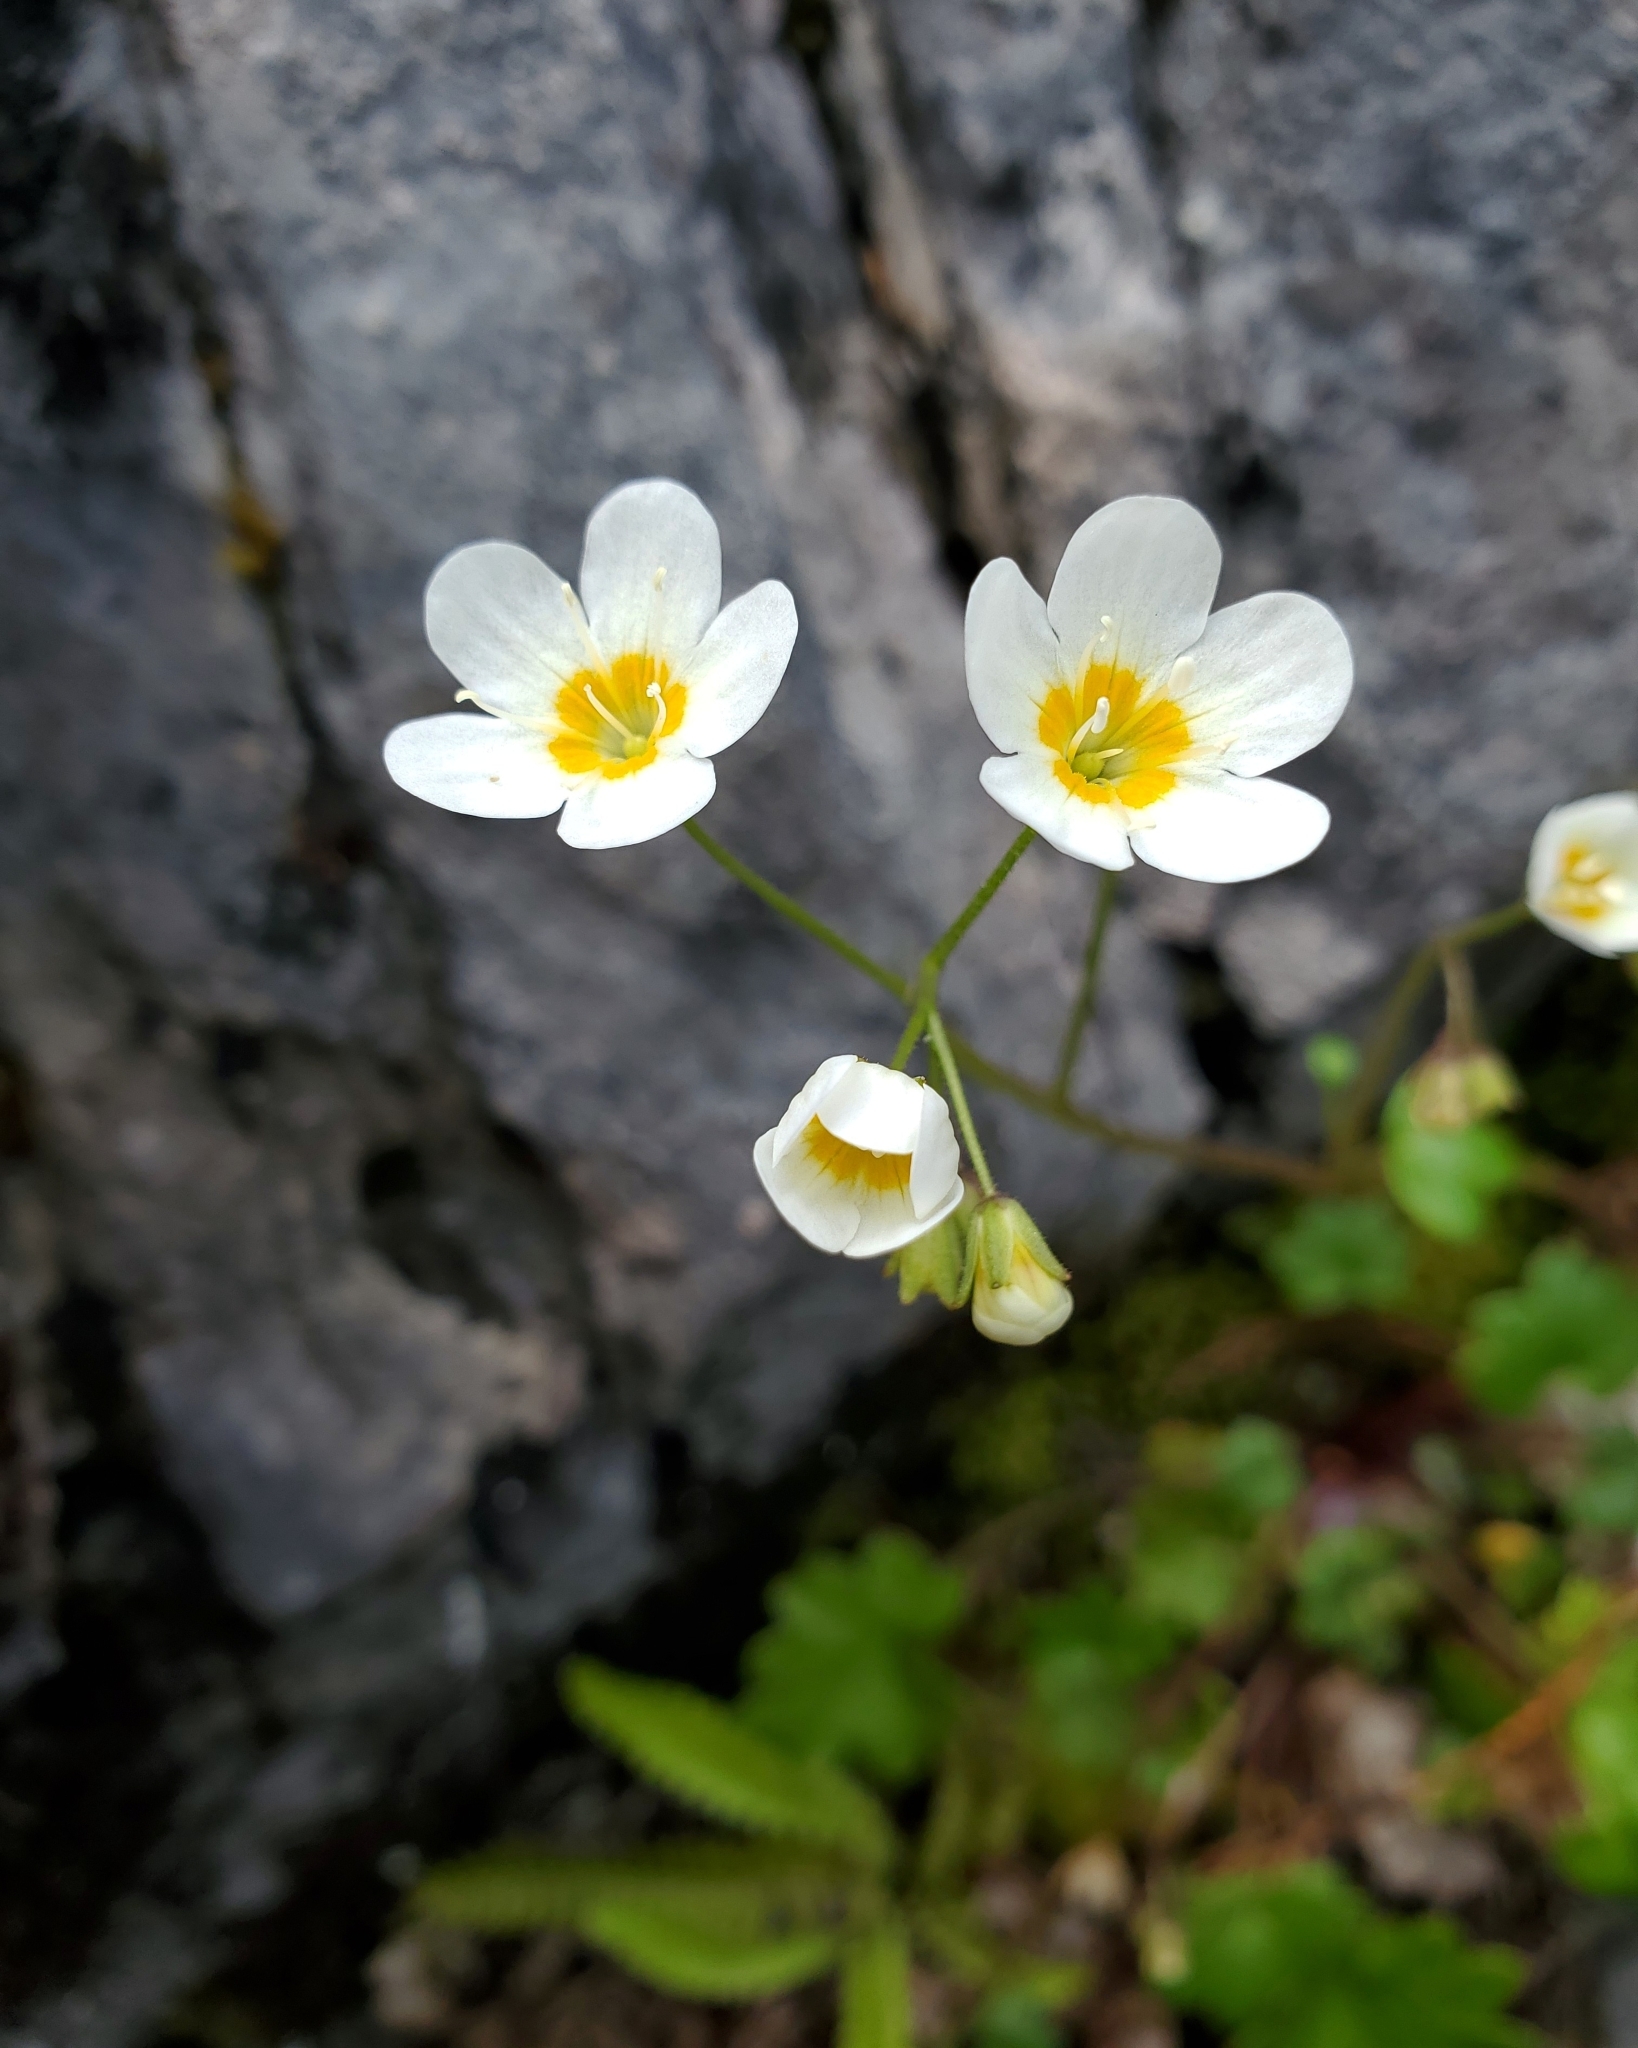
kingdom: Plantae
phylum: Tracheophyta
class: Magnoliopsida
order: Boraginales
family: Hydrophyllaceae
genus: Romanzoffia
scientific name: Romanzoffia sitchensis
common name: Sitka mistmaid
